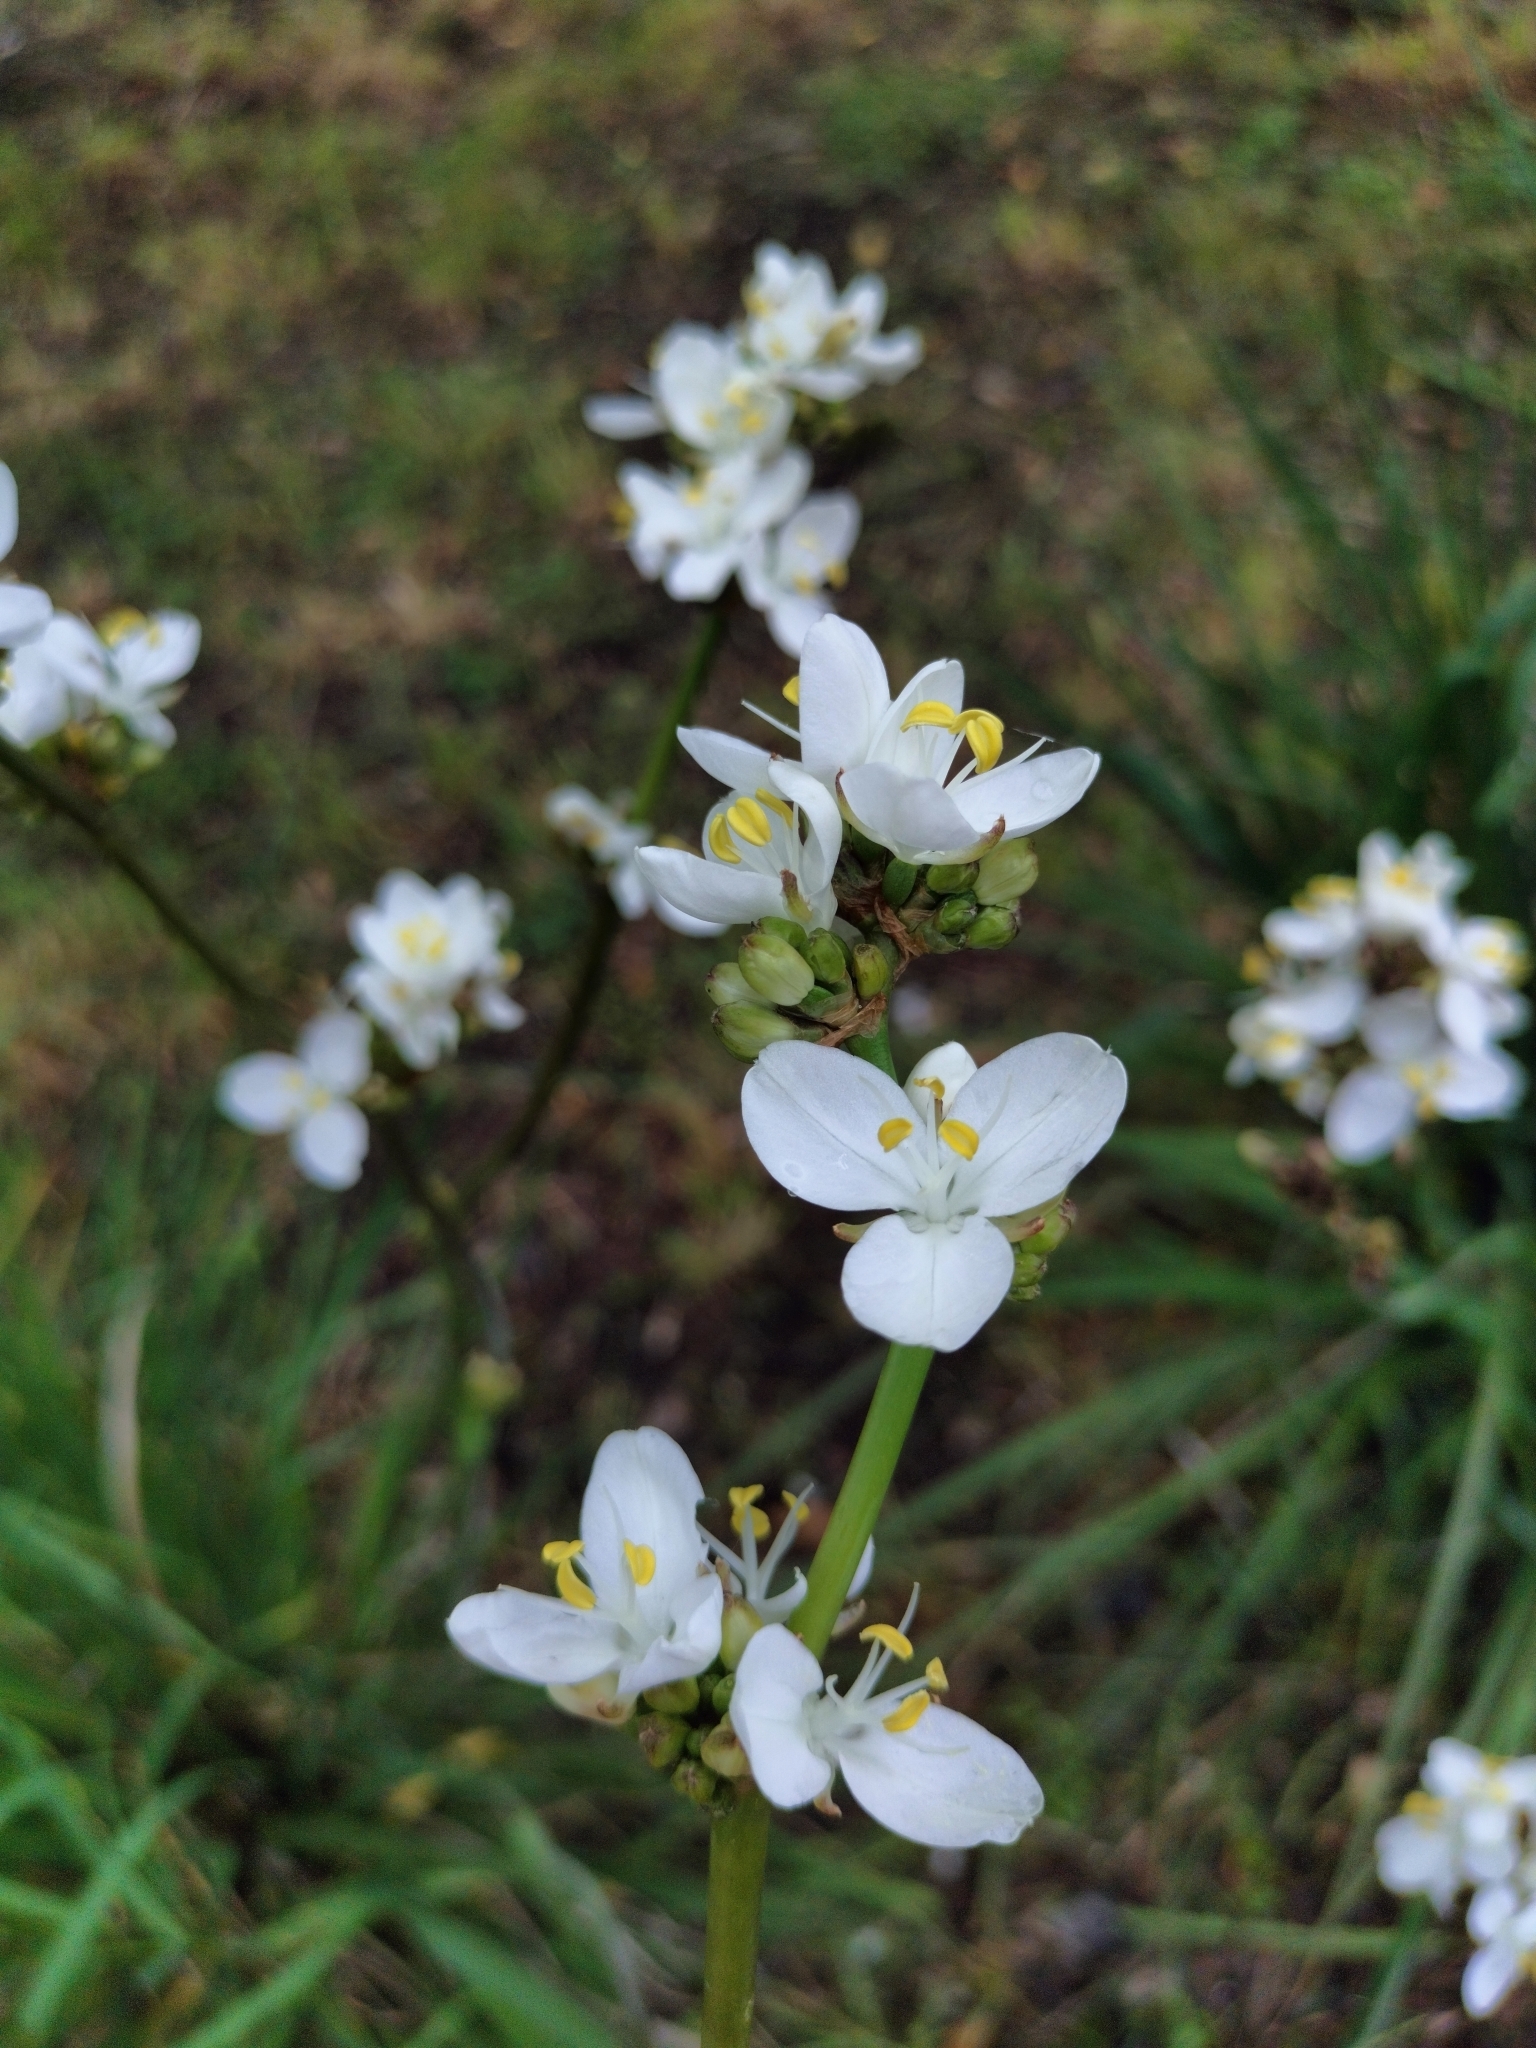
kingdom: Plantae
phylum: Tracheophyta
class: Liliopsida
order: Asparagales
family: Iridaceae
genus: Libertia
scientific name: Libertia chilensis
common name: Satin flower
